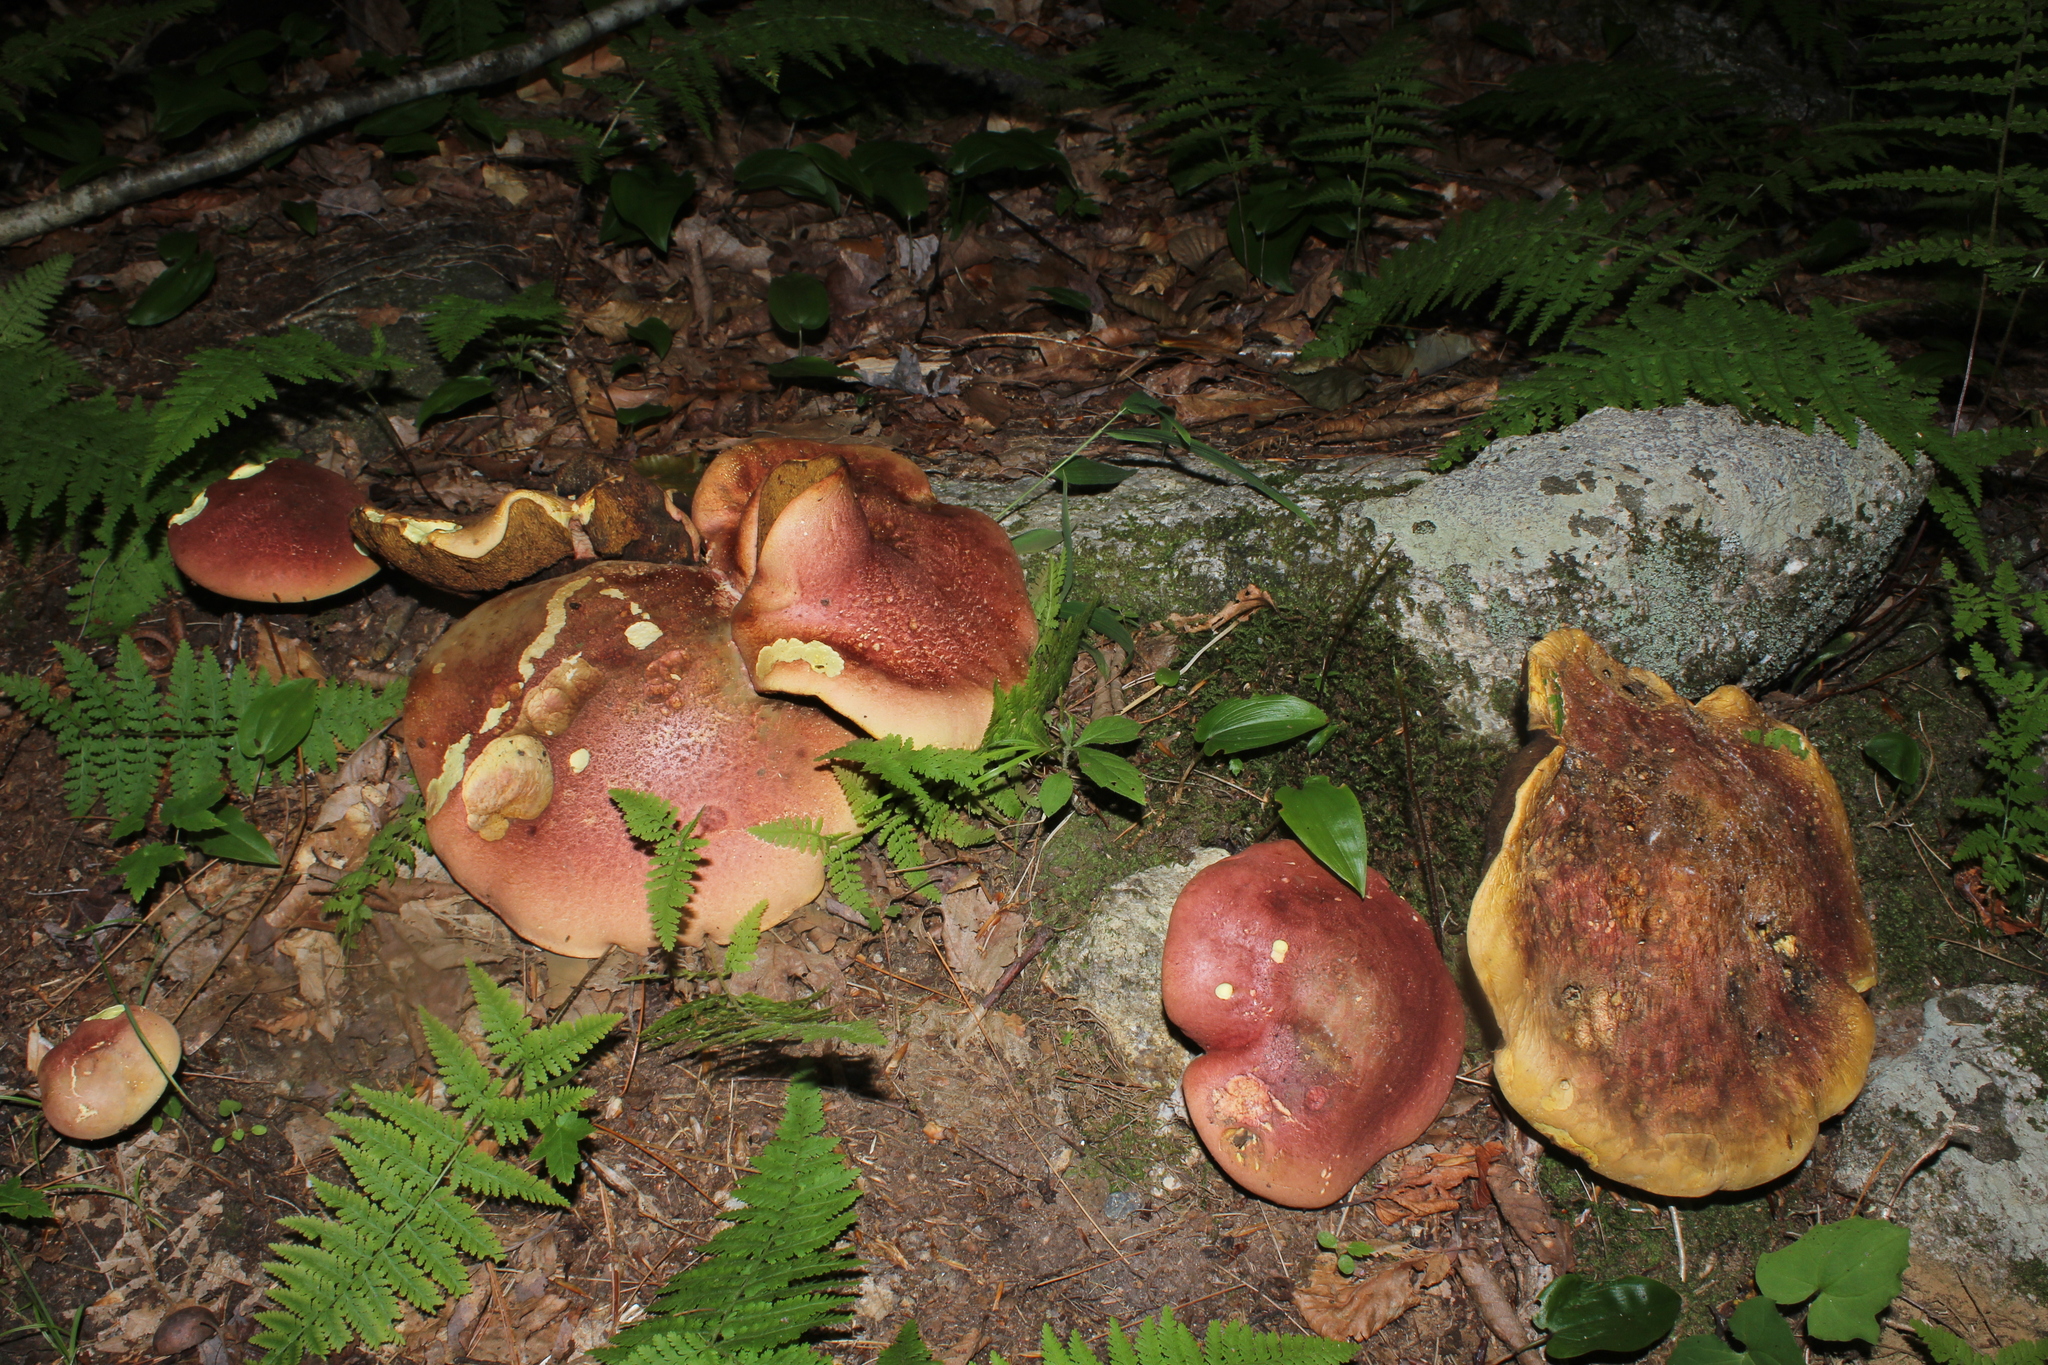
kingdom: Fungi
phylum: Basidiomycota
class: Agaricomycetes
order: Boletales
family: Boletaceae
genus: Baorangia
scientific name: Baorangia bicolor
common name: Two-colored bolete
